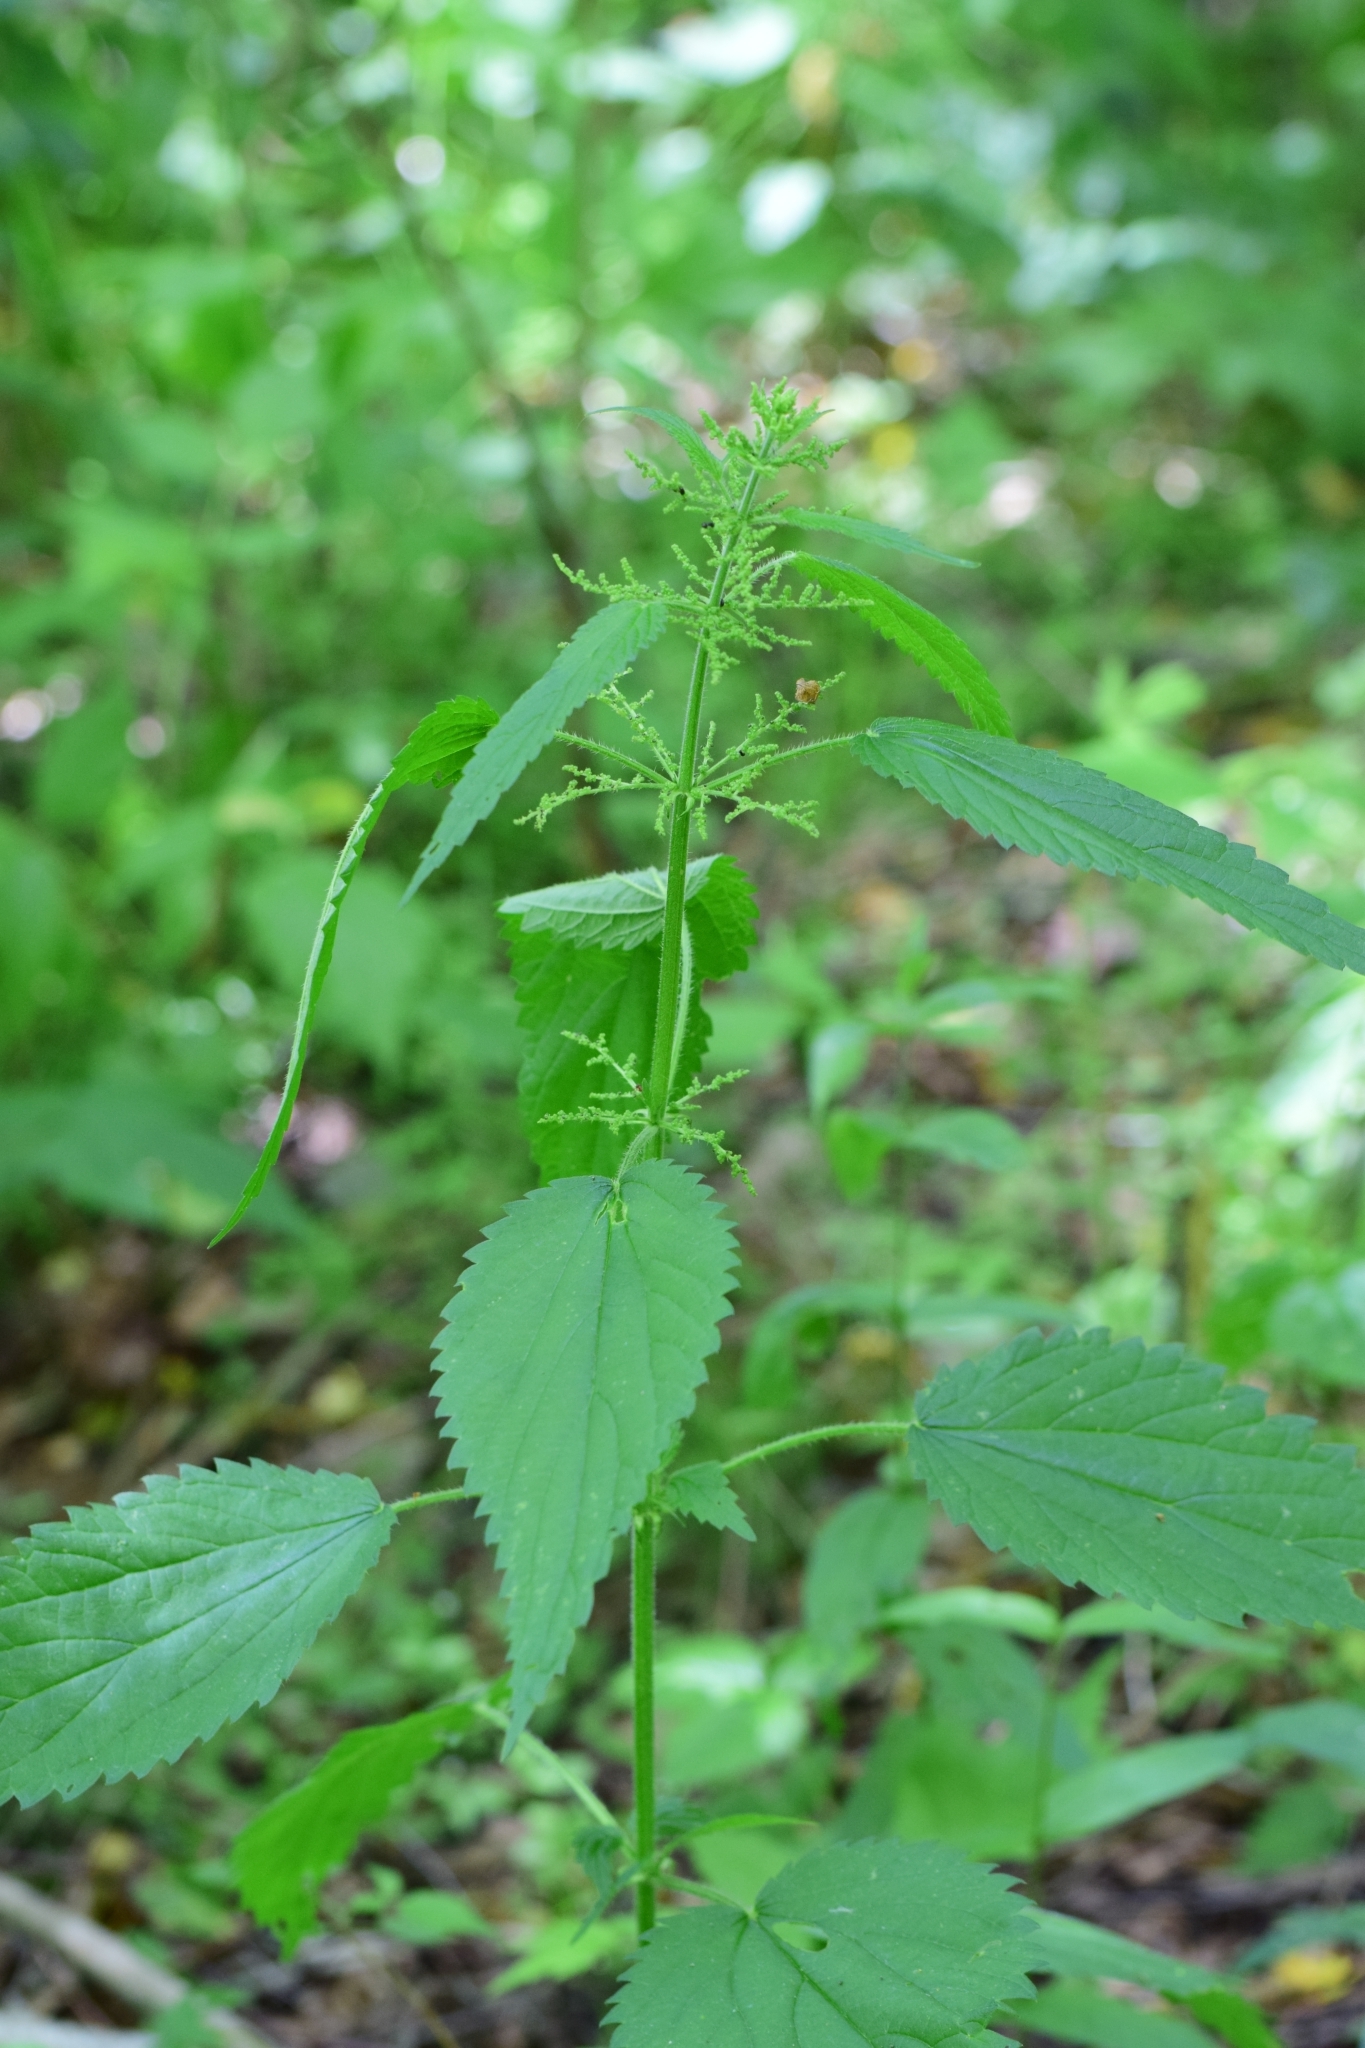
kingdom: Plantae
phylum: Tracheophyta
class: Magnoliopsida
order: Rosales
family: Urticaceae
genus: Urtica
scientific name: Urtica dioica
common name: Common nettle
